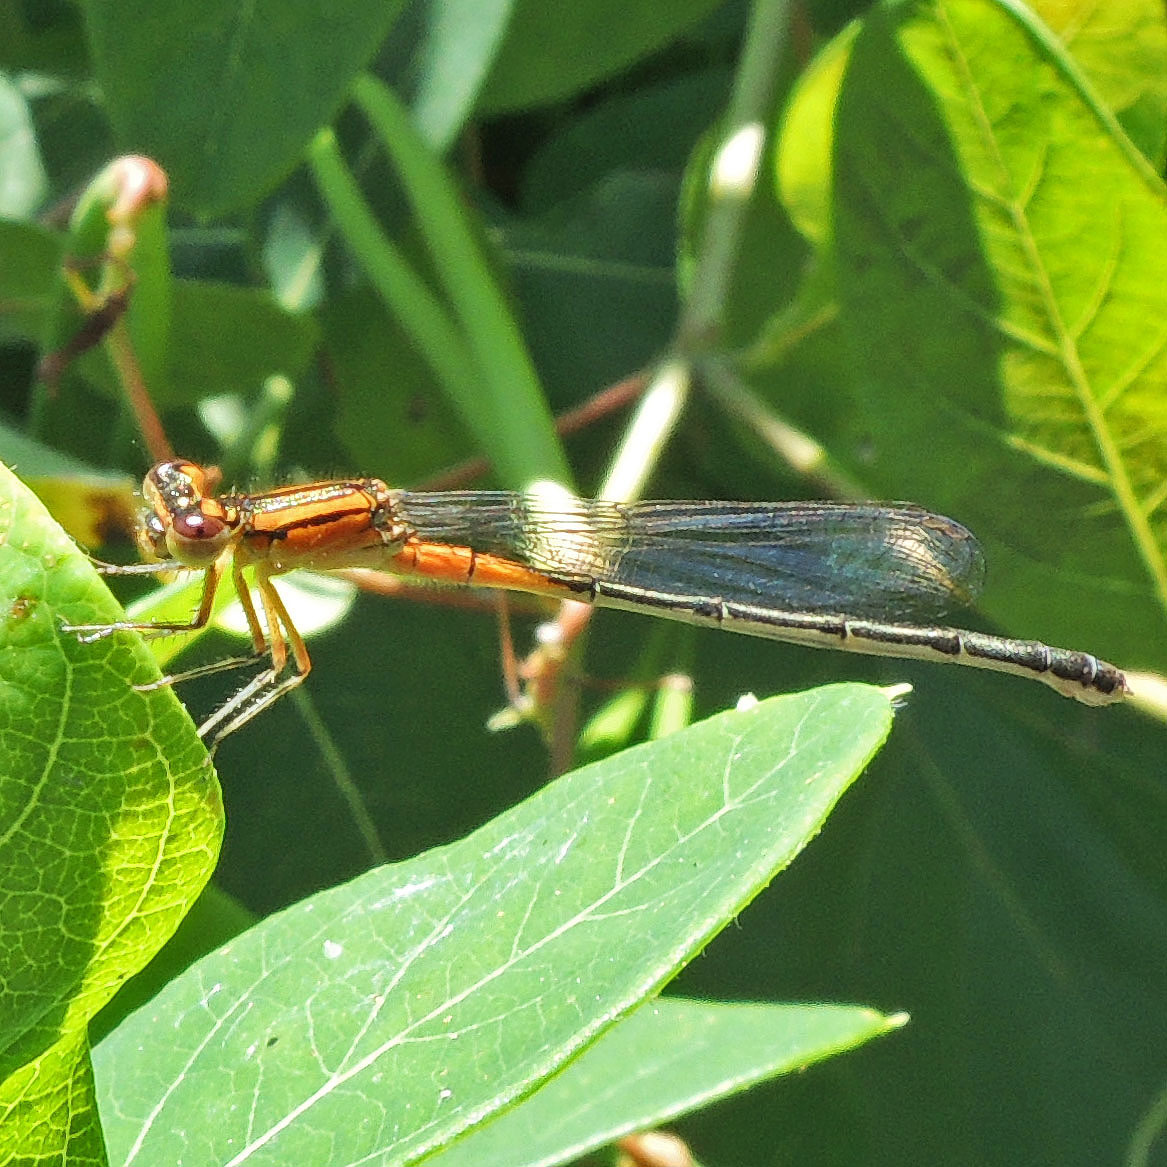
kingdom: Animalia
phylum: Arthropoda
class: Insecta
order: Odonata
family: Coenagrionidae
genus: Ischnura
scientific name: Ischnura verticalis
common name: Eastern forktail
